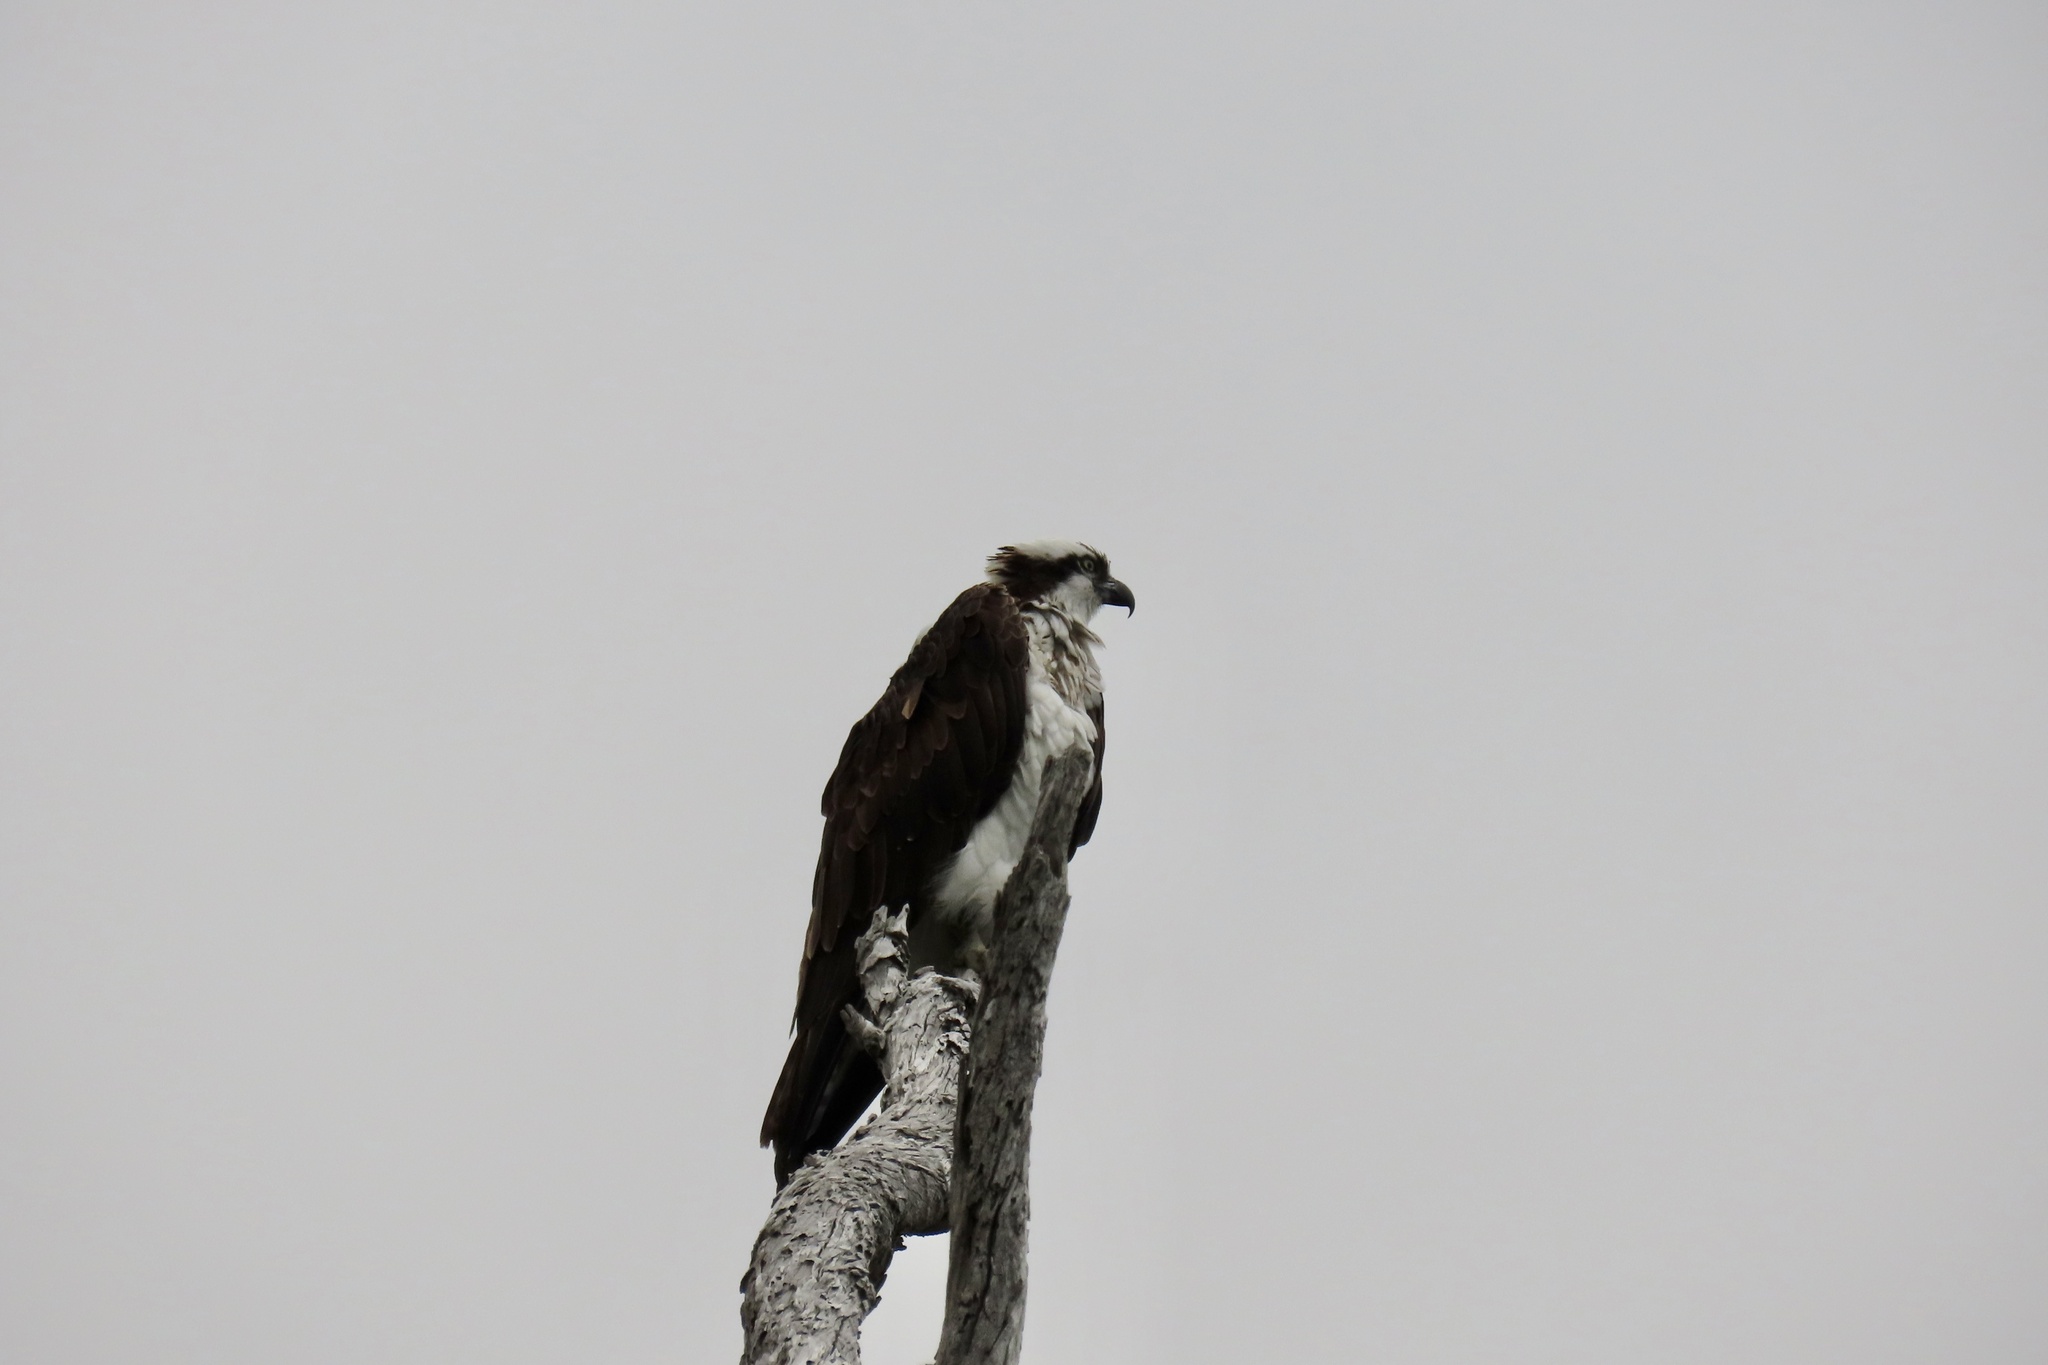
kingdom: Animalia
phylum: Chordata
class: Aves
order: Accipitriformes
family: Pandionidae
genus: Pandion
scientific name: Pandion haliaetus
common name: Osprey
